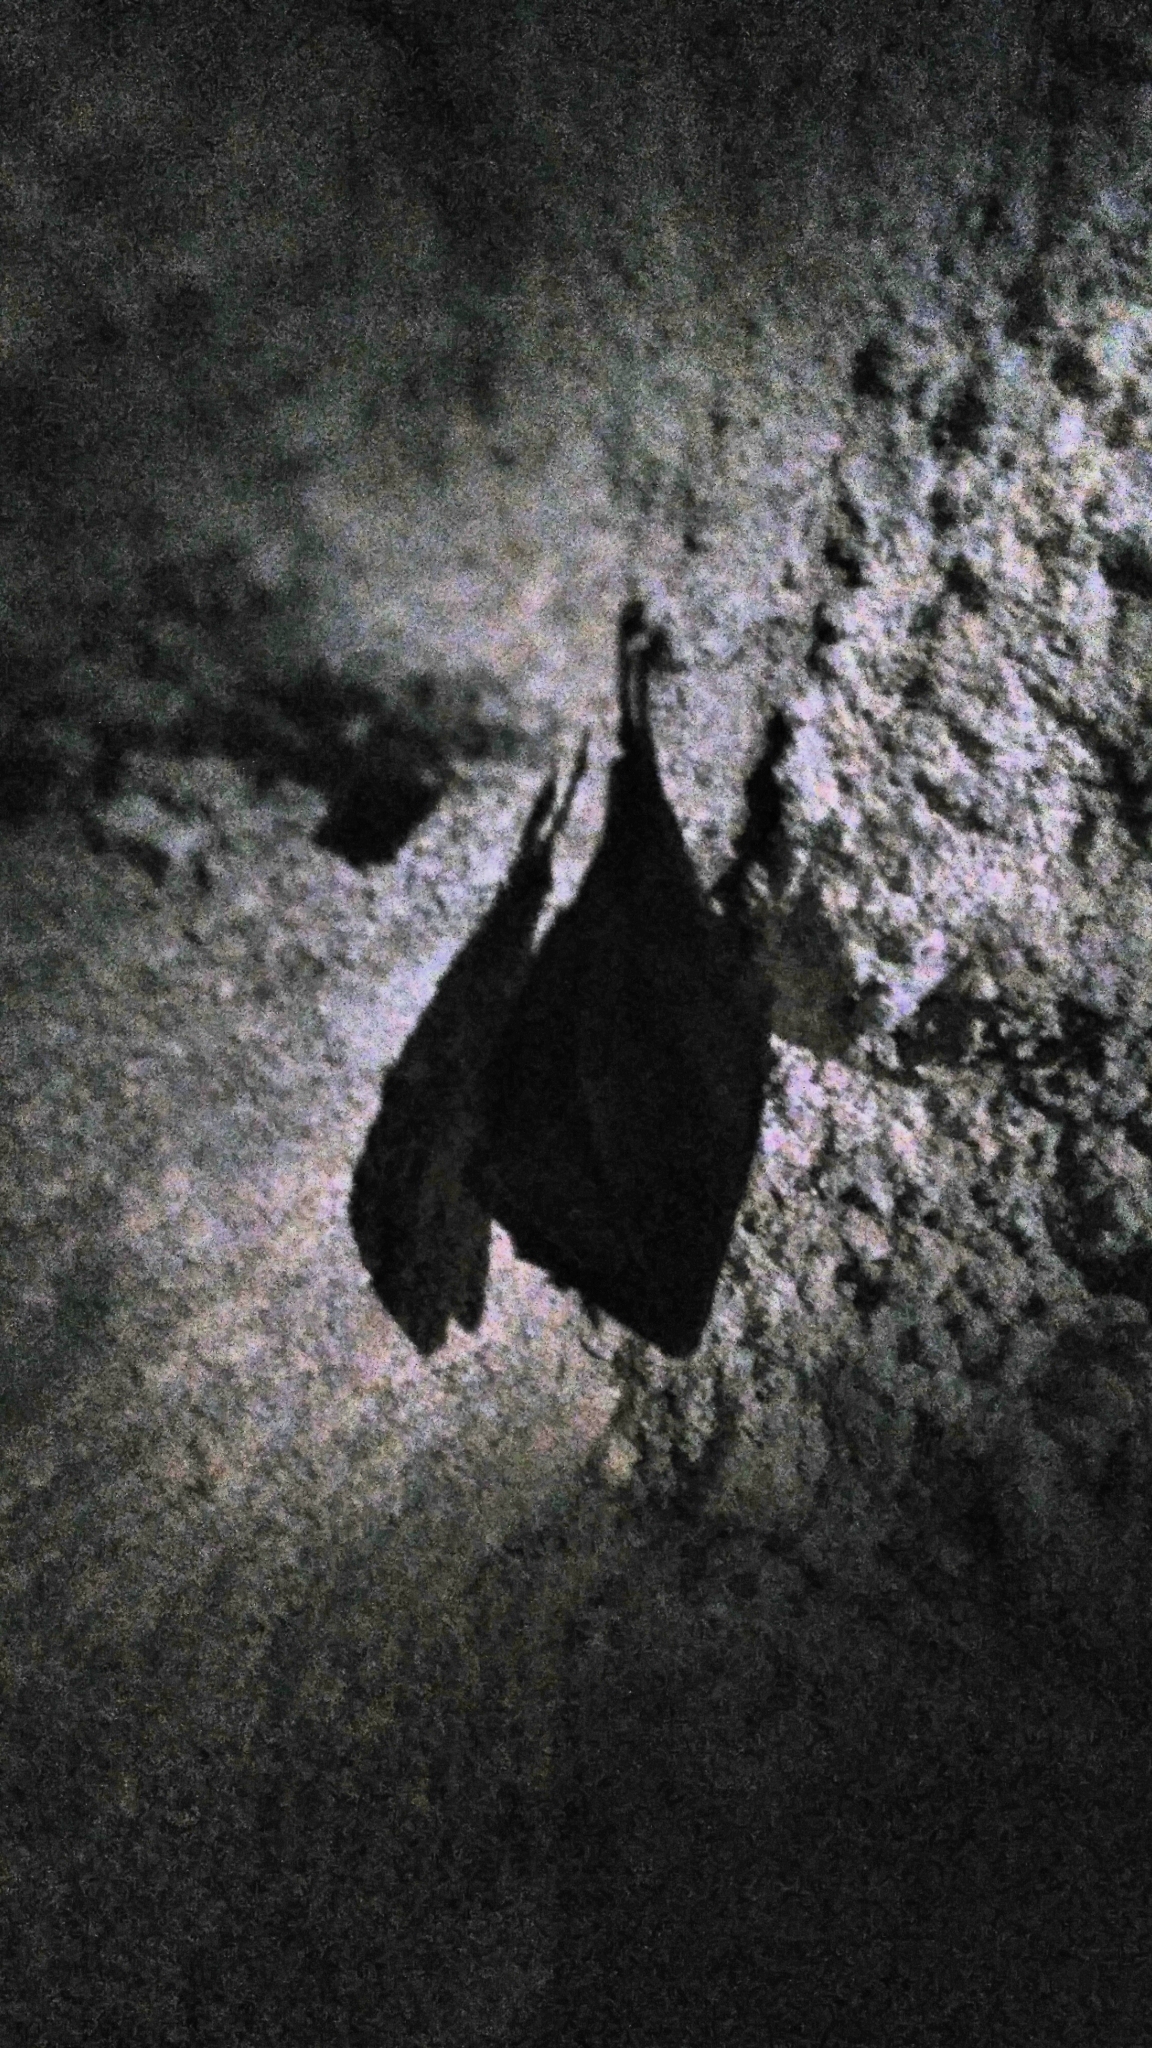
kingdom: Animalia
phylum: Chordata
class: Mammalia
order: Chiroptera
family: Rhinolophidae
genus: Rhinolophus
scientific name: Rhinolophus hipposideros
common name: Lesser horseshoe bat
